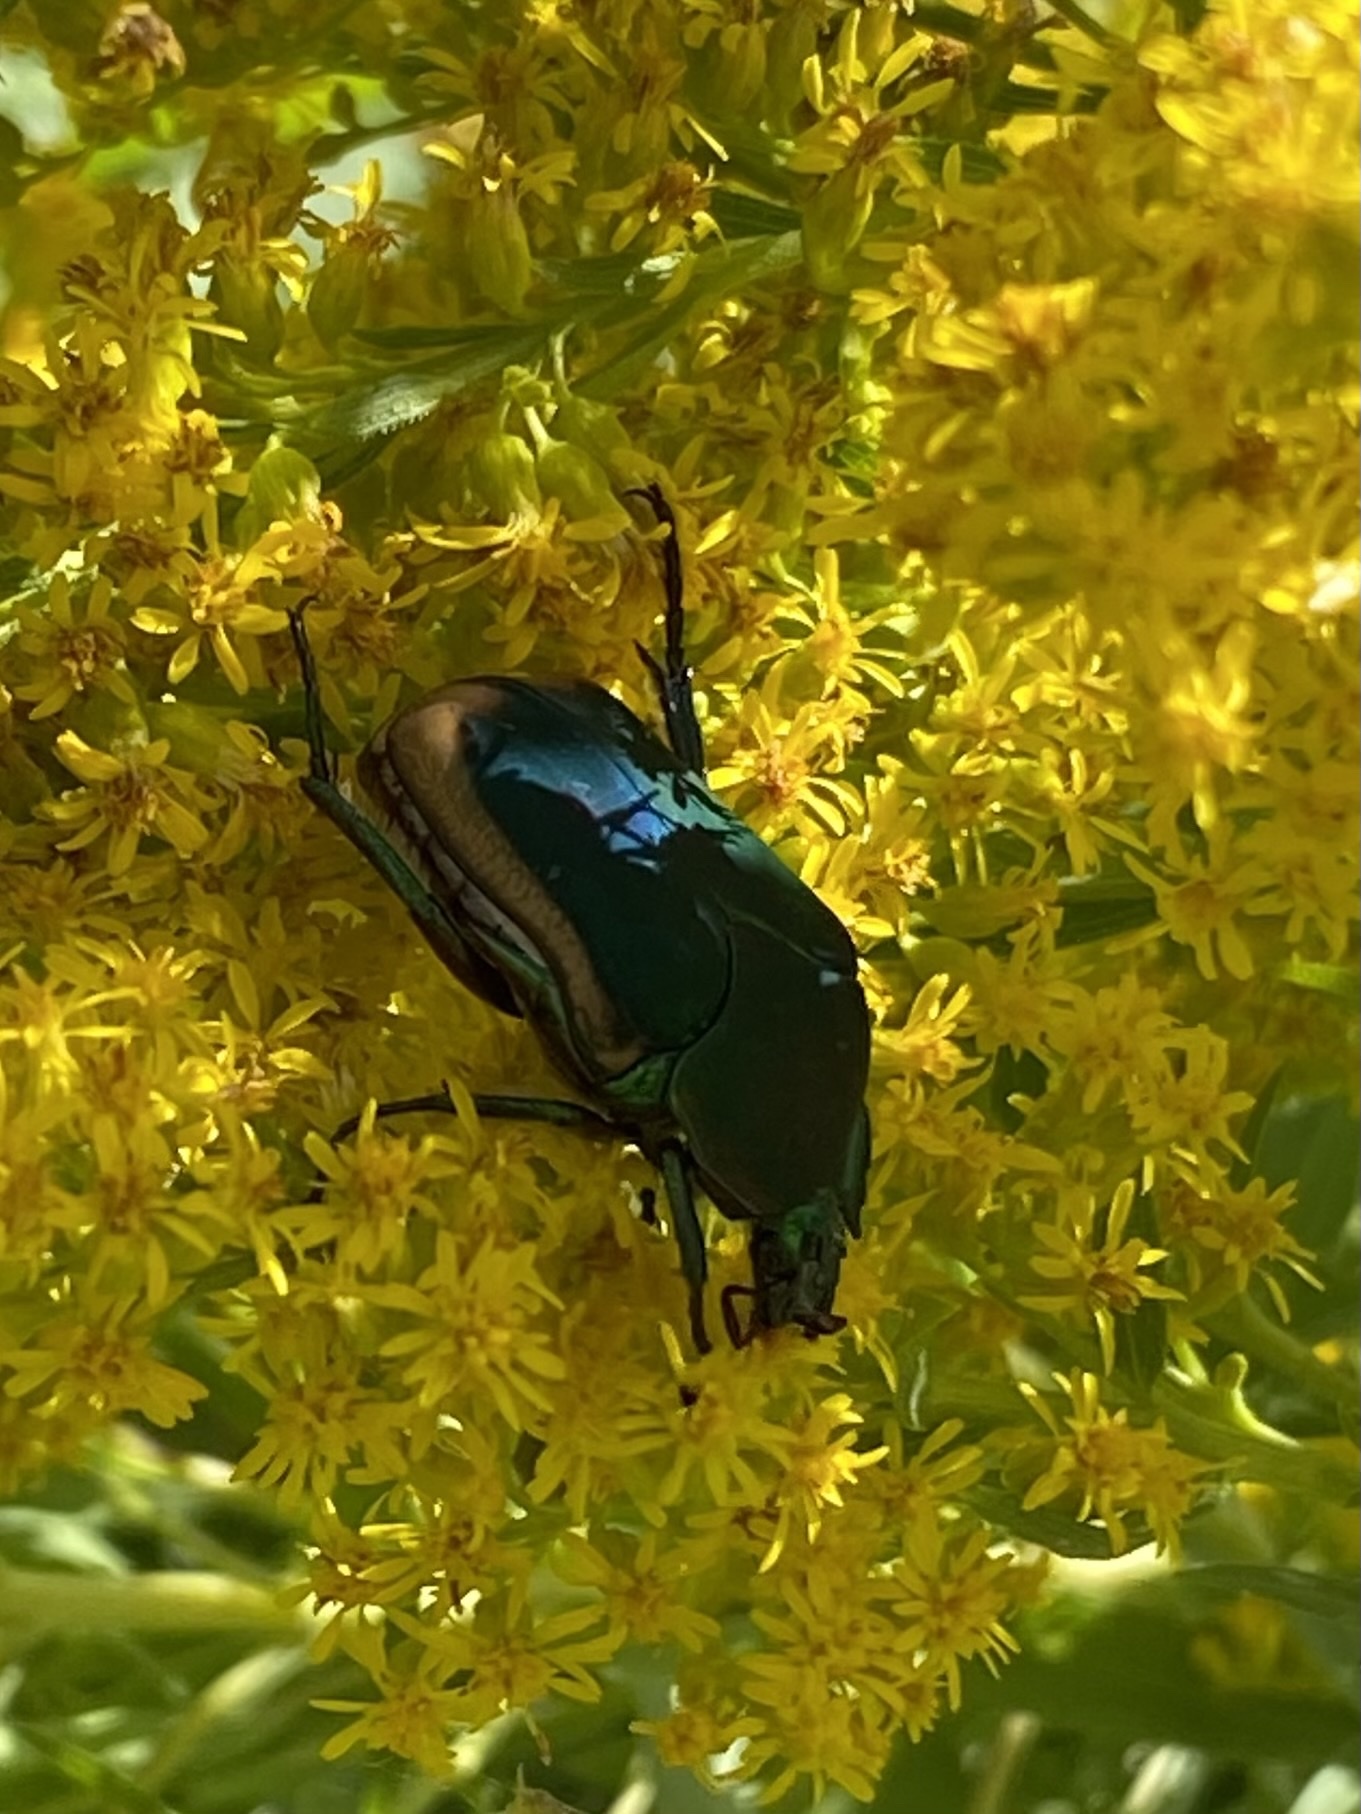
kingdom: Animalia
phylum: Arthropoda
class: Insecta
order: Coleoptera
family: Scarabaeidae
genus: Cotinis
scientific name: Cotinis mutabilis
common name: Figeater beetle
